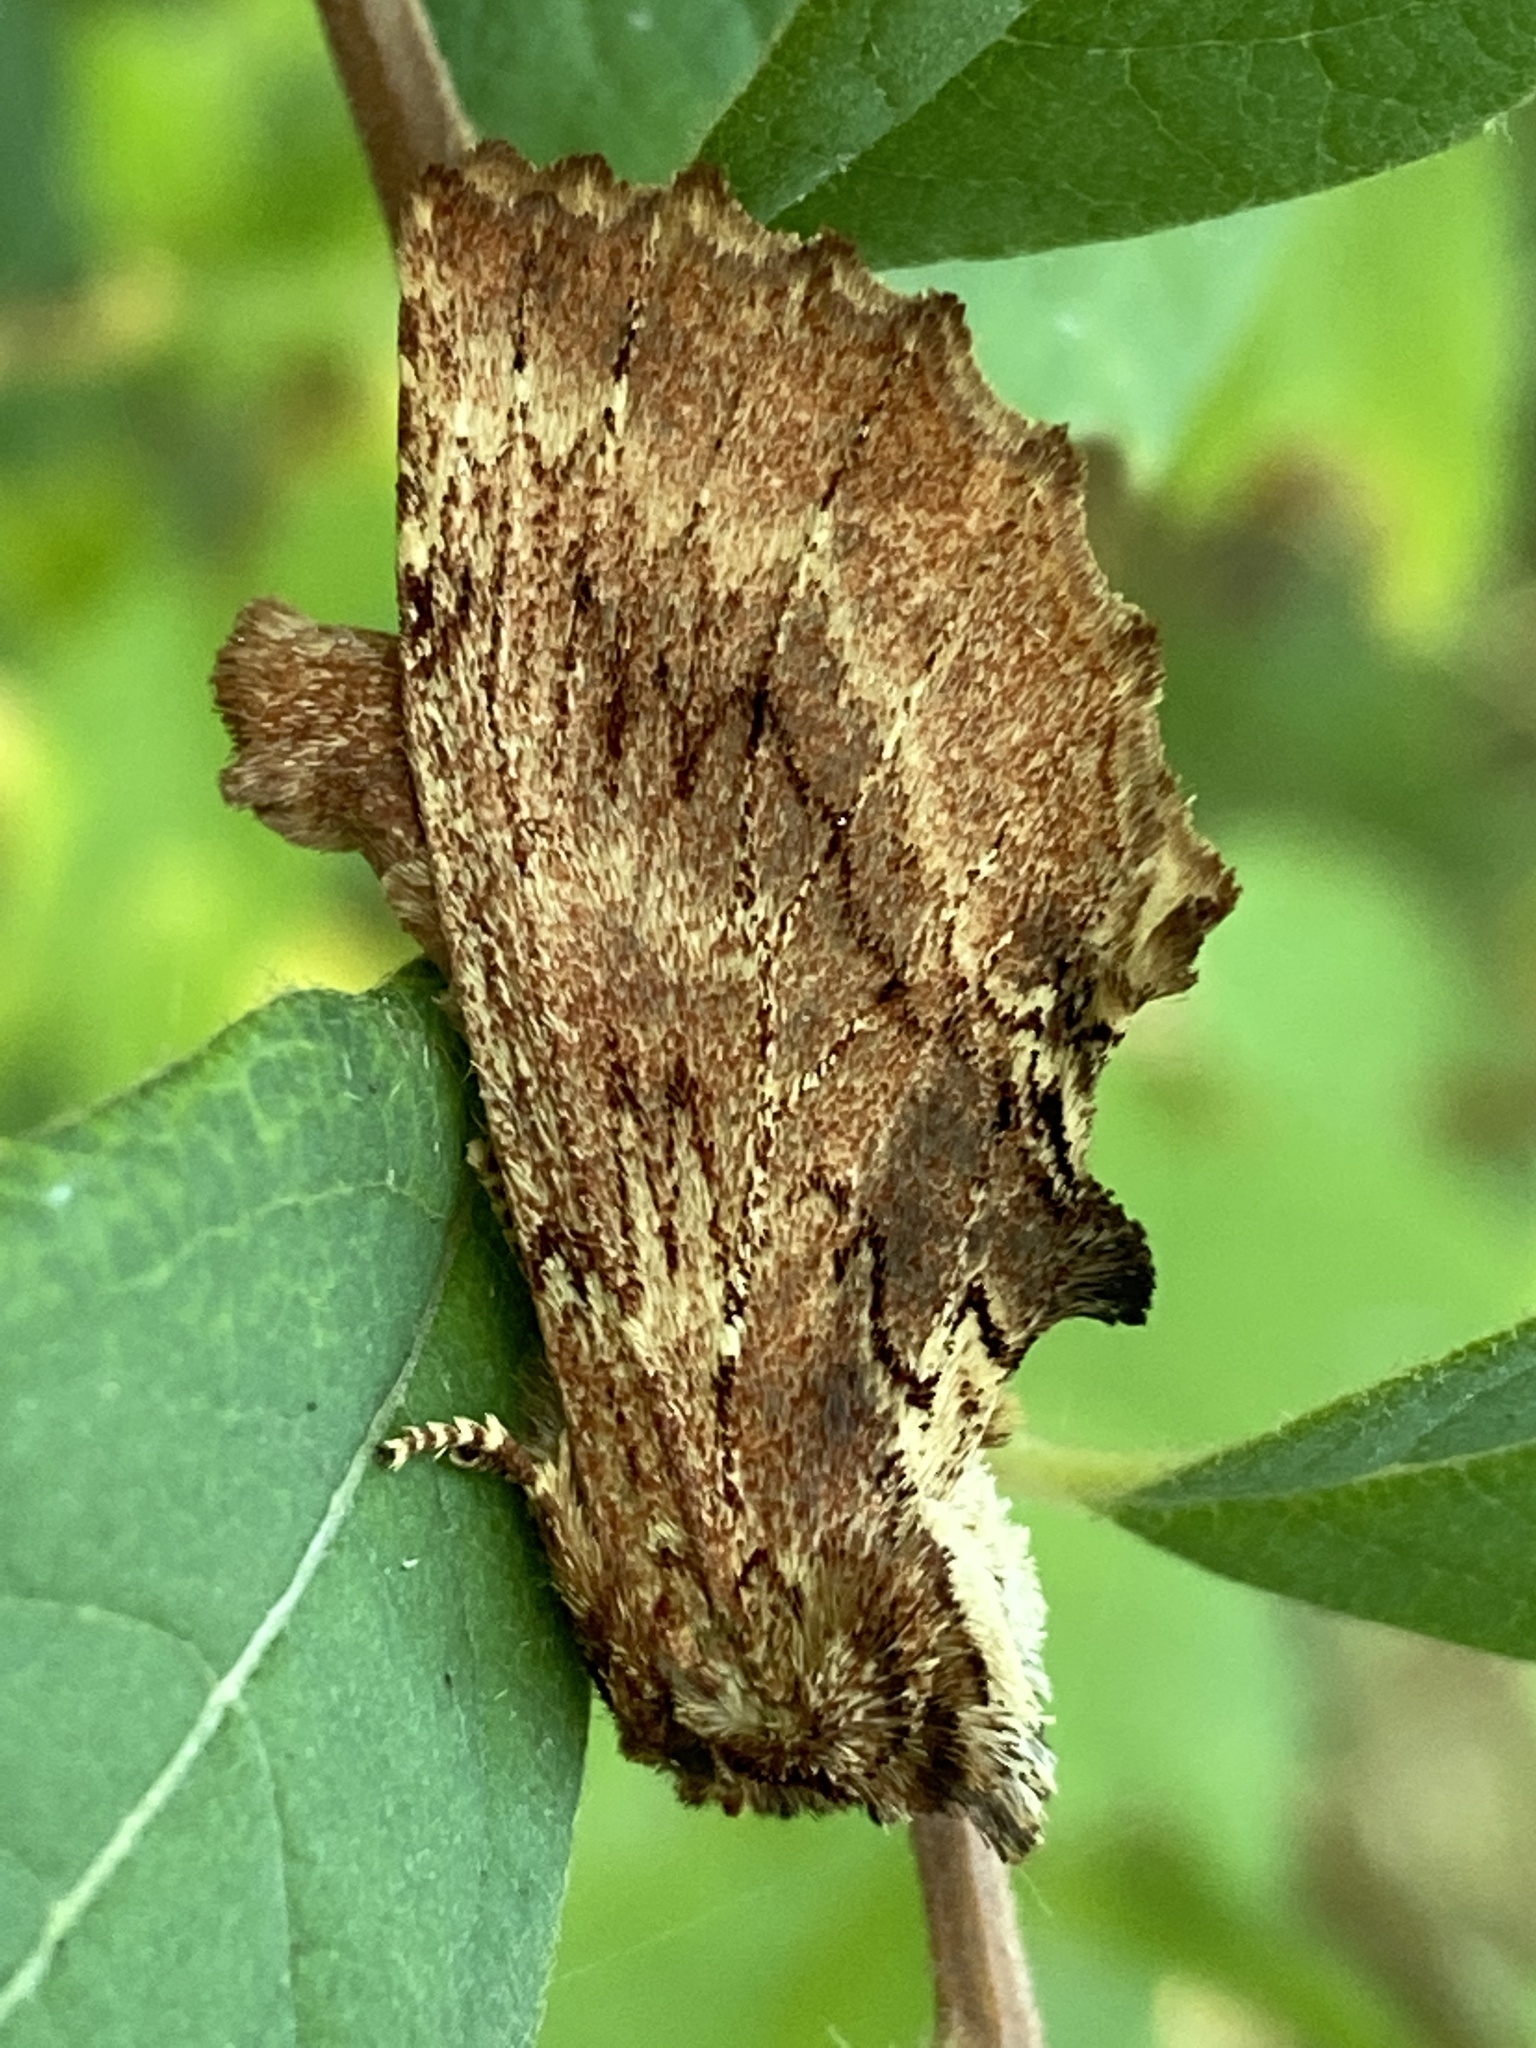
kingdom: Animalia
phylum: Arthropoda
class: Insecta
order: Lepidoptera
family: Notodontidae
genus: Ptilodon
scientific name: Ptilodon capucina
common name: Coxcomb prominent
